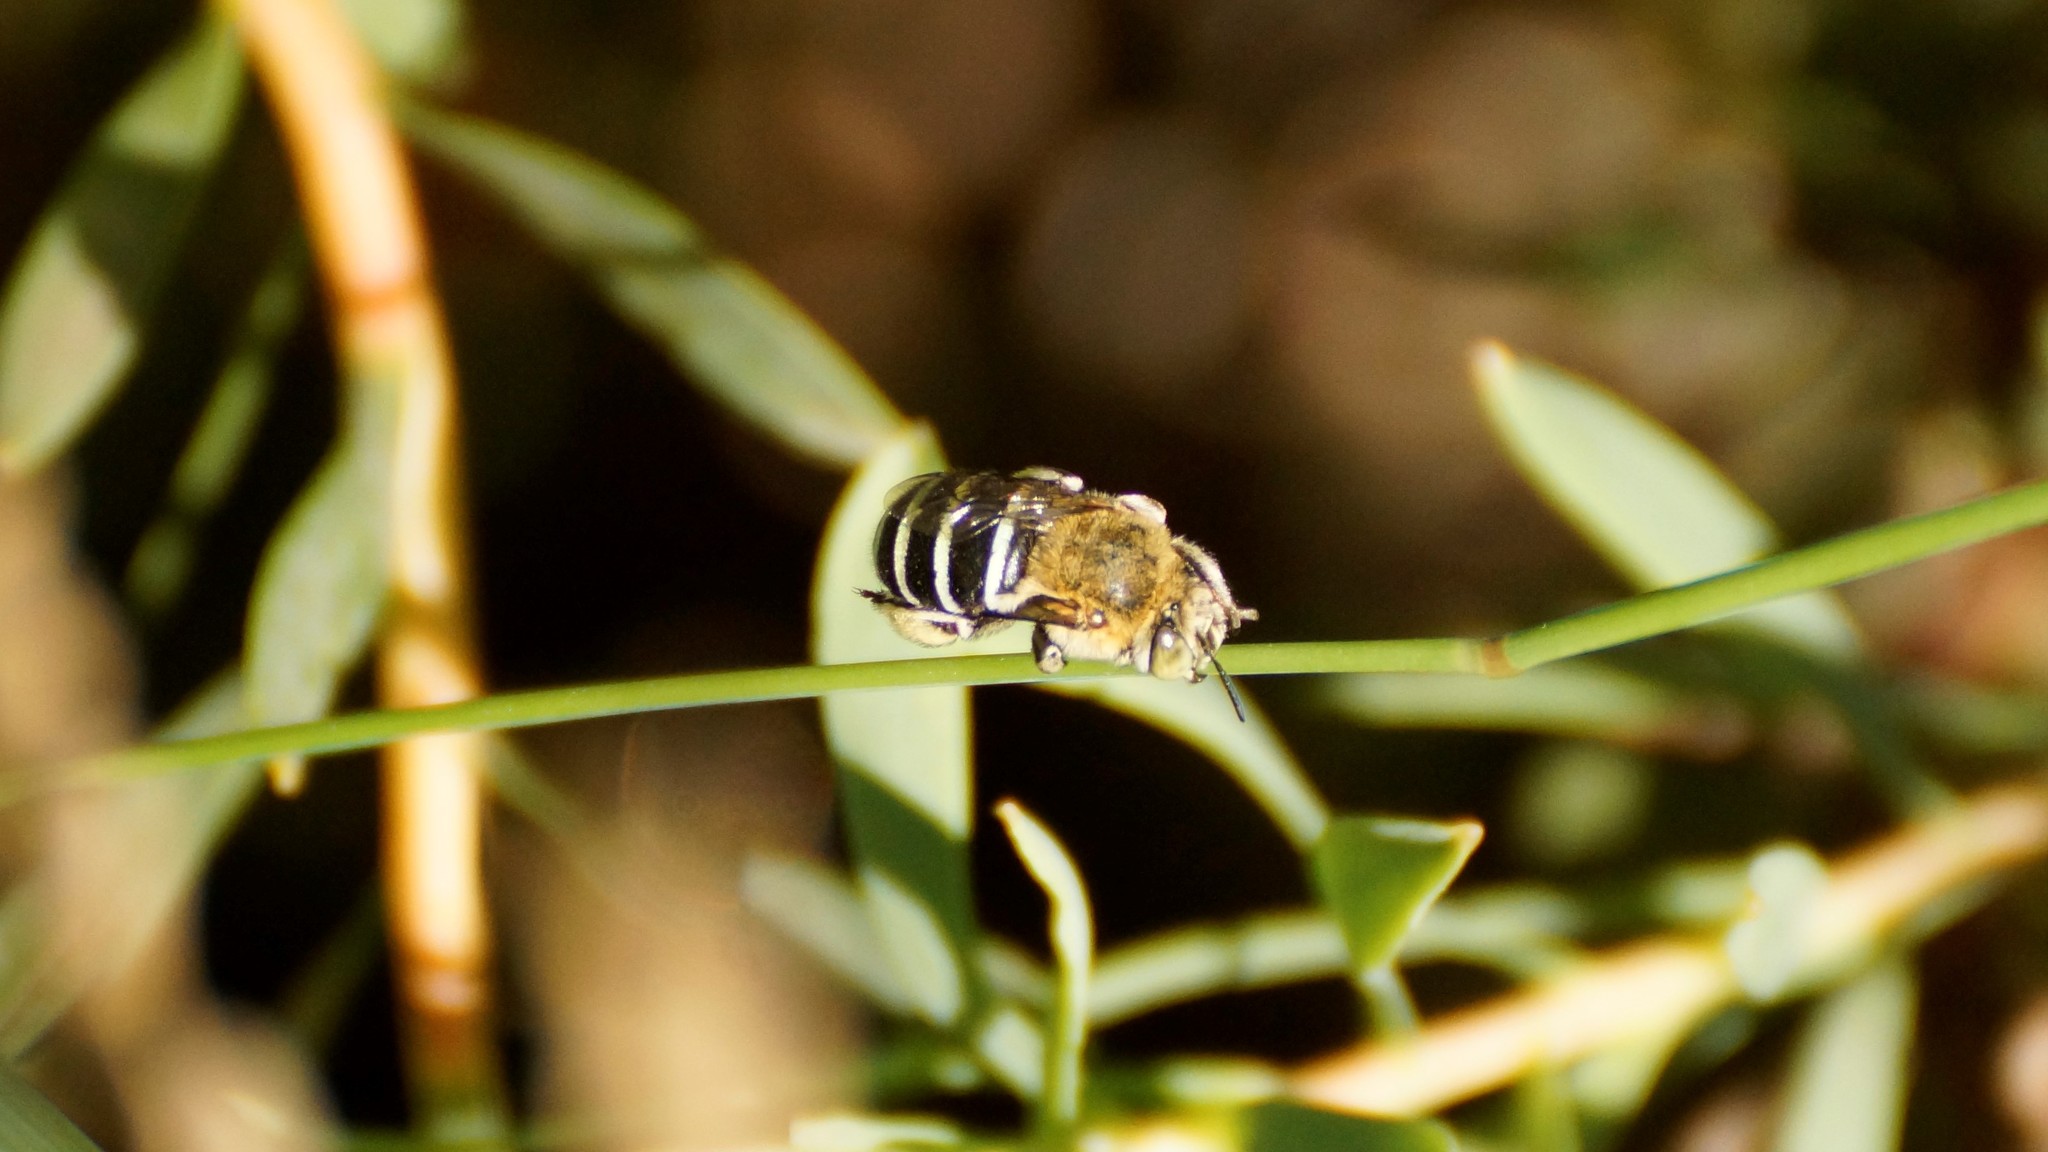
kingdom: Animalia
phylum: Arthropoda
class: Insecta
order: Hymenoptera
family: Apidae
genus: Amegilla
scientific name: Amegilla
